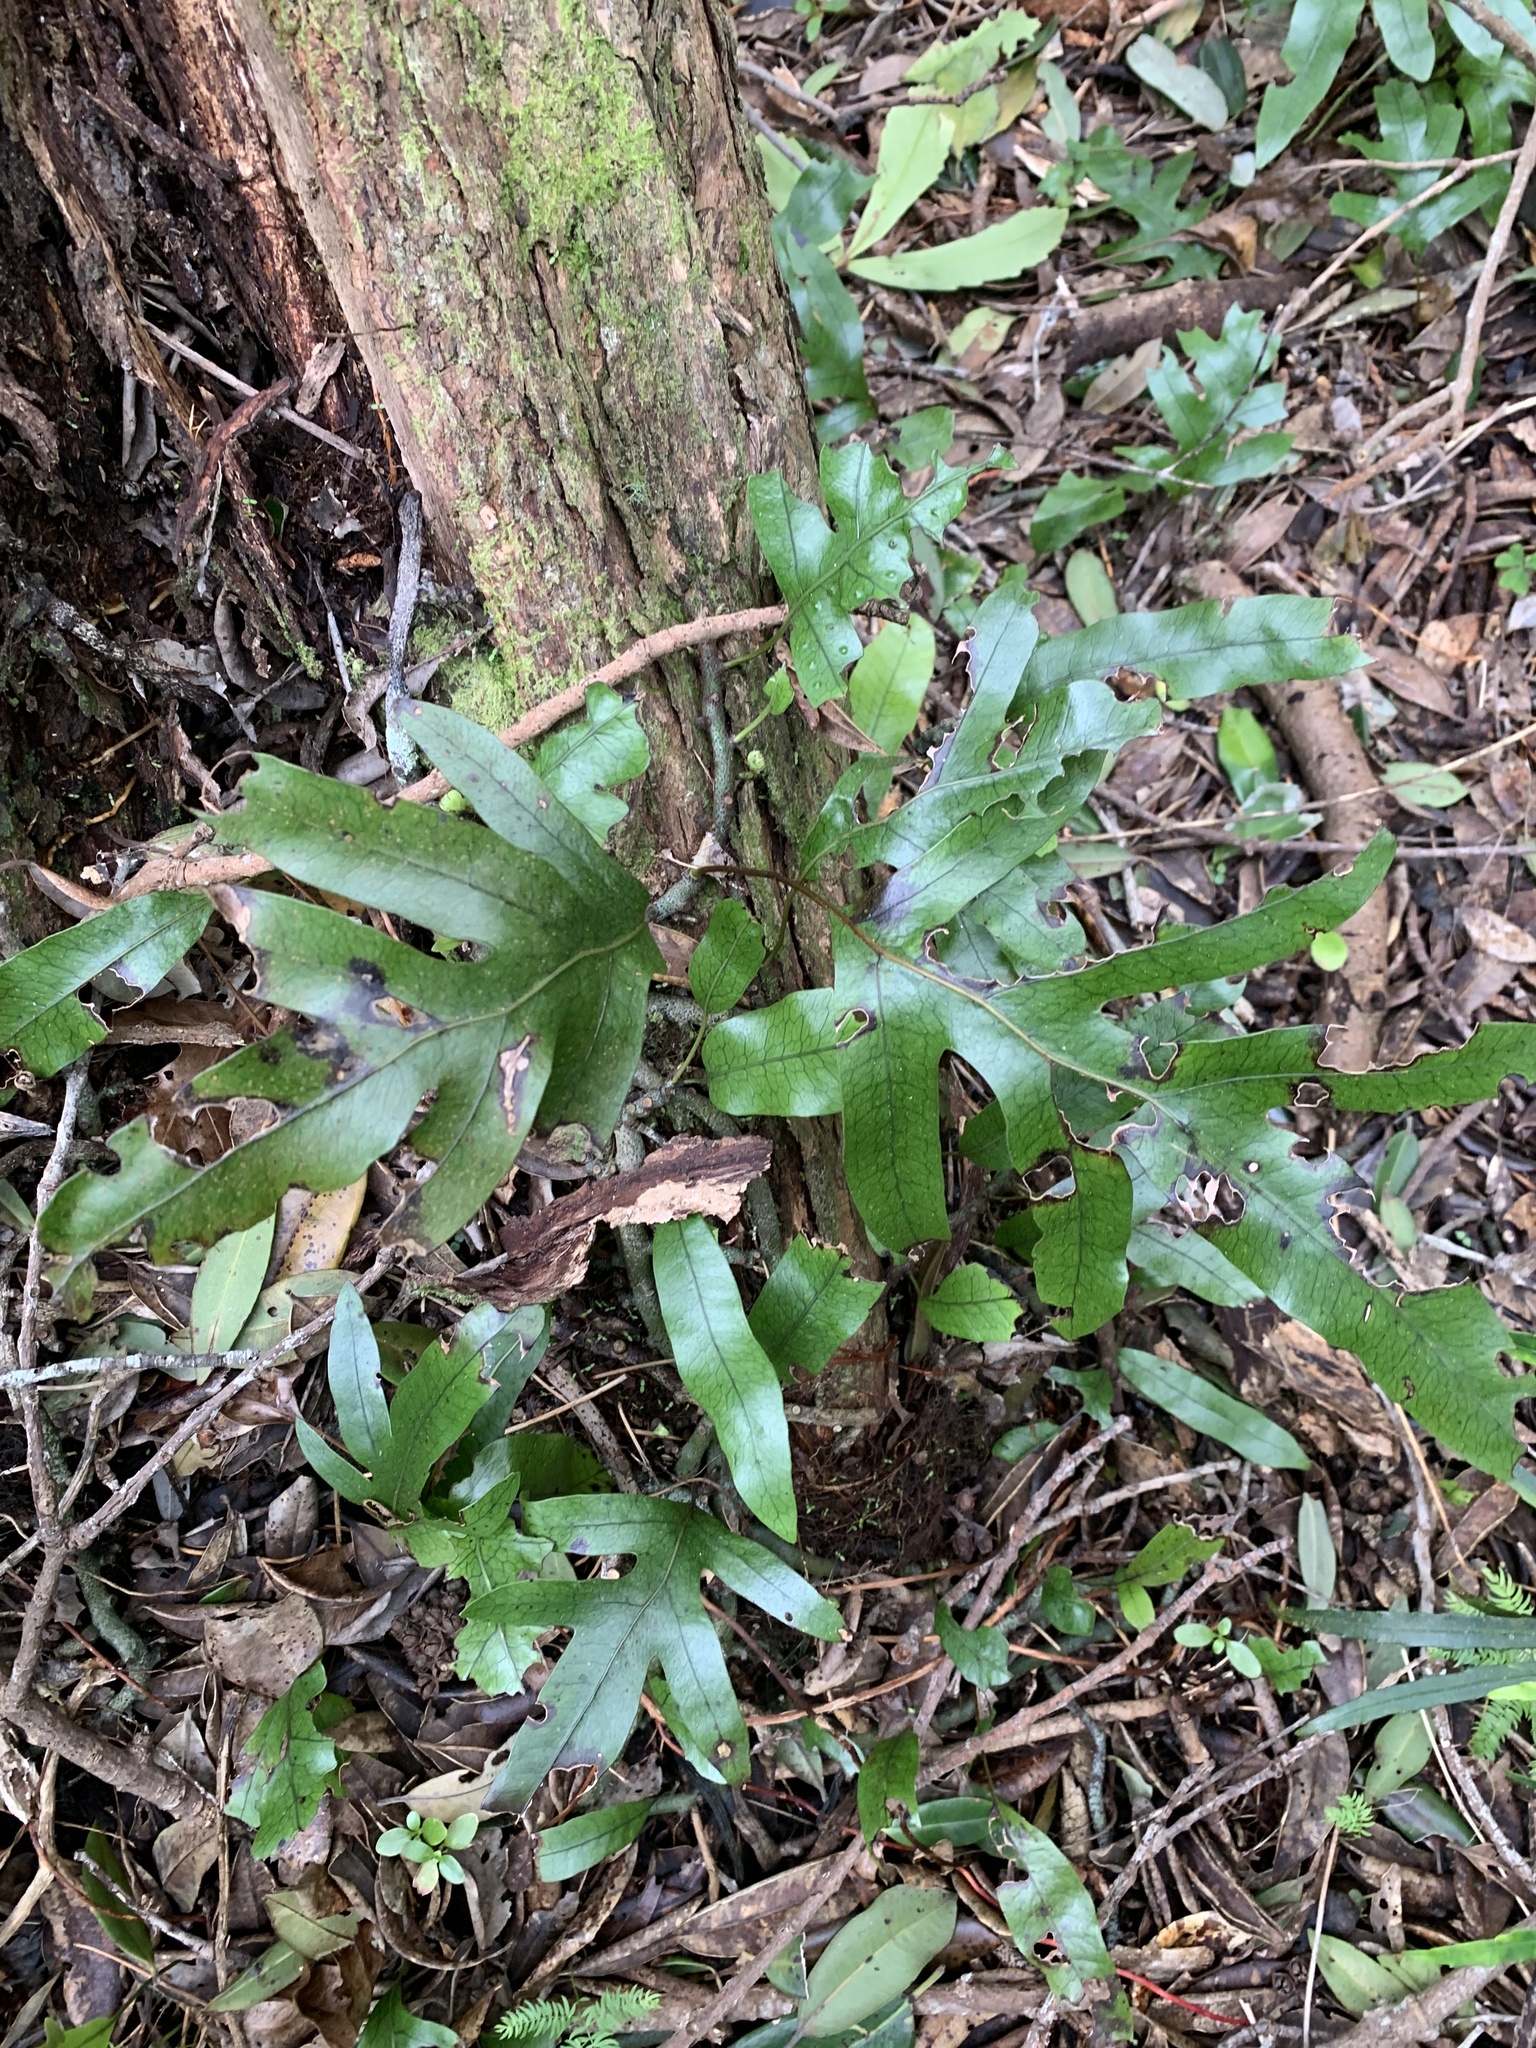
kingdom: Plantae
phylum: Tracheophyta
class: Polypodiopsida
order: Polypodiales
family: Polypodiaceae
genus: Lecanopteris
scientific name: Lecanopteris pustulata
